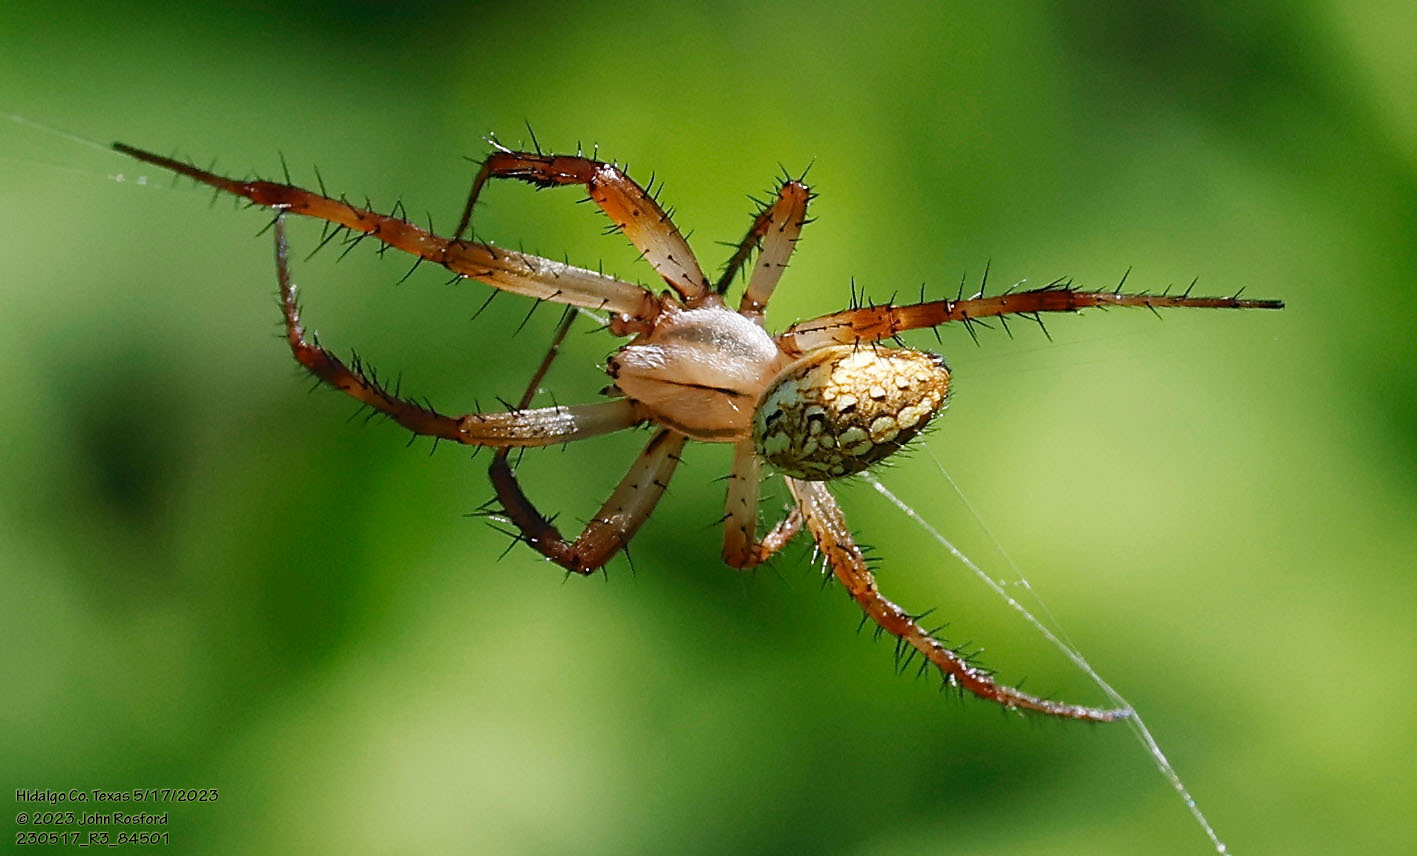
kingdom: Animalia
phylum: Arthropoda
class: Arachnida
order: Araneae
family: Araneidae
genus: Neoscona
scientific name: Neoscona oaxacensis
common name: Orb weavers
